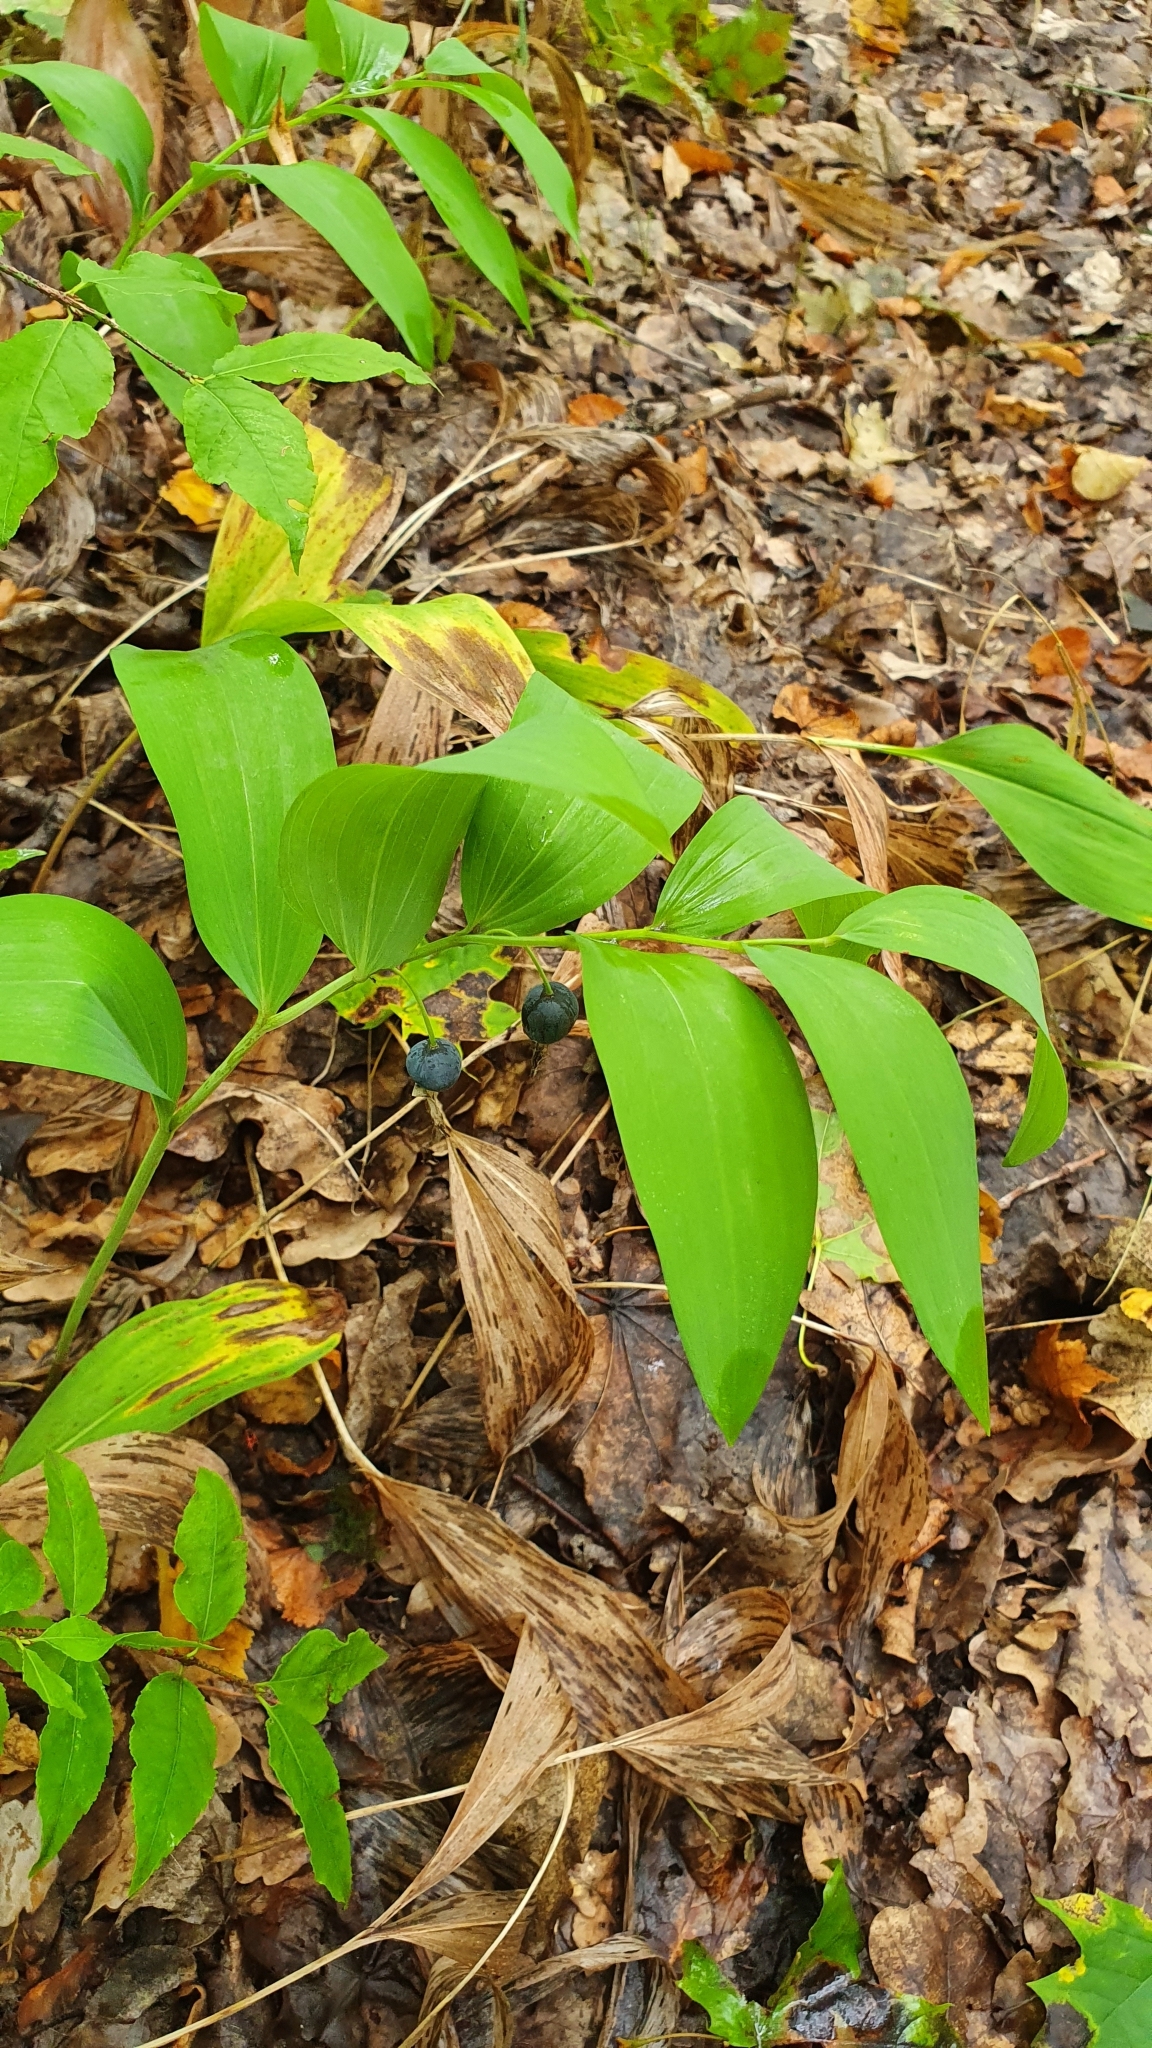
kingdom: Plantae
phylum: Tracheophyta
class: Liliopsida
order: Asparagales
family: Asparagaceae
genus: Polygonatum
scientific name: Polygonatum odoratum
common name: Angular solomon's-seal
